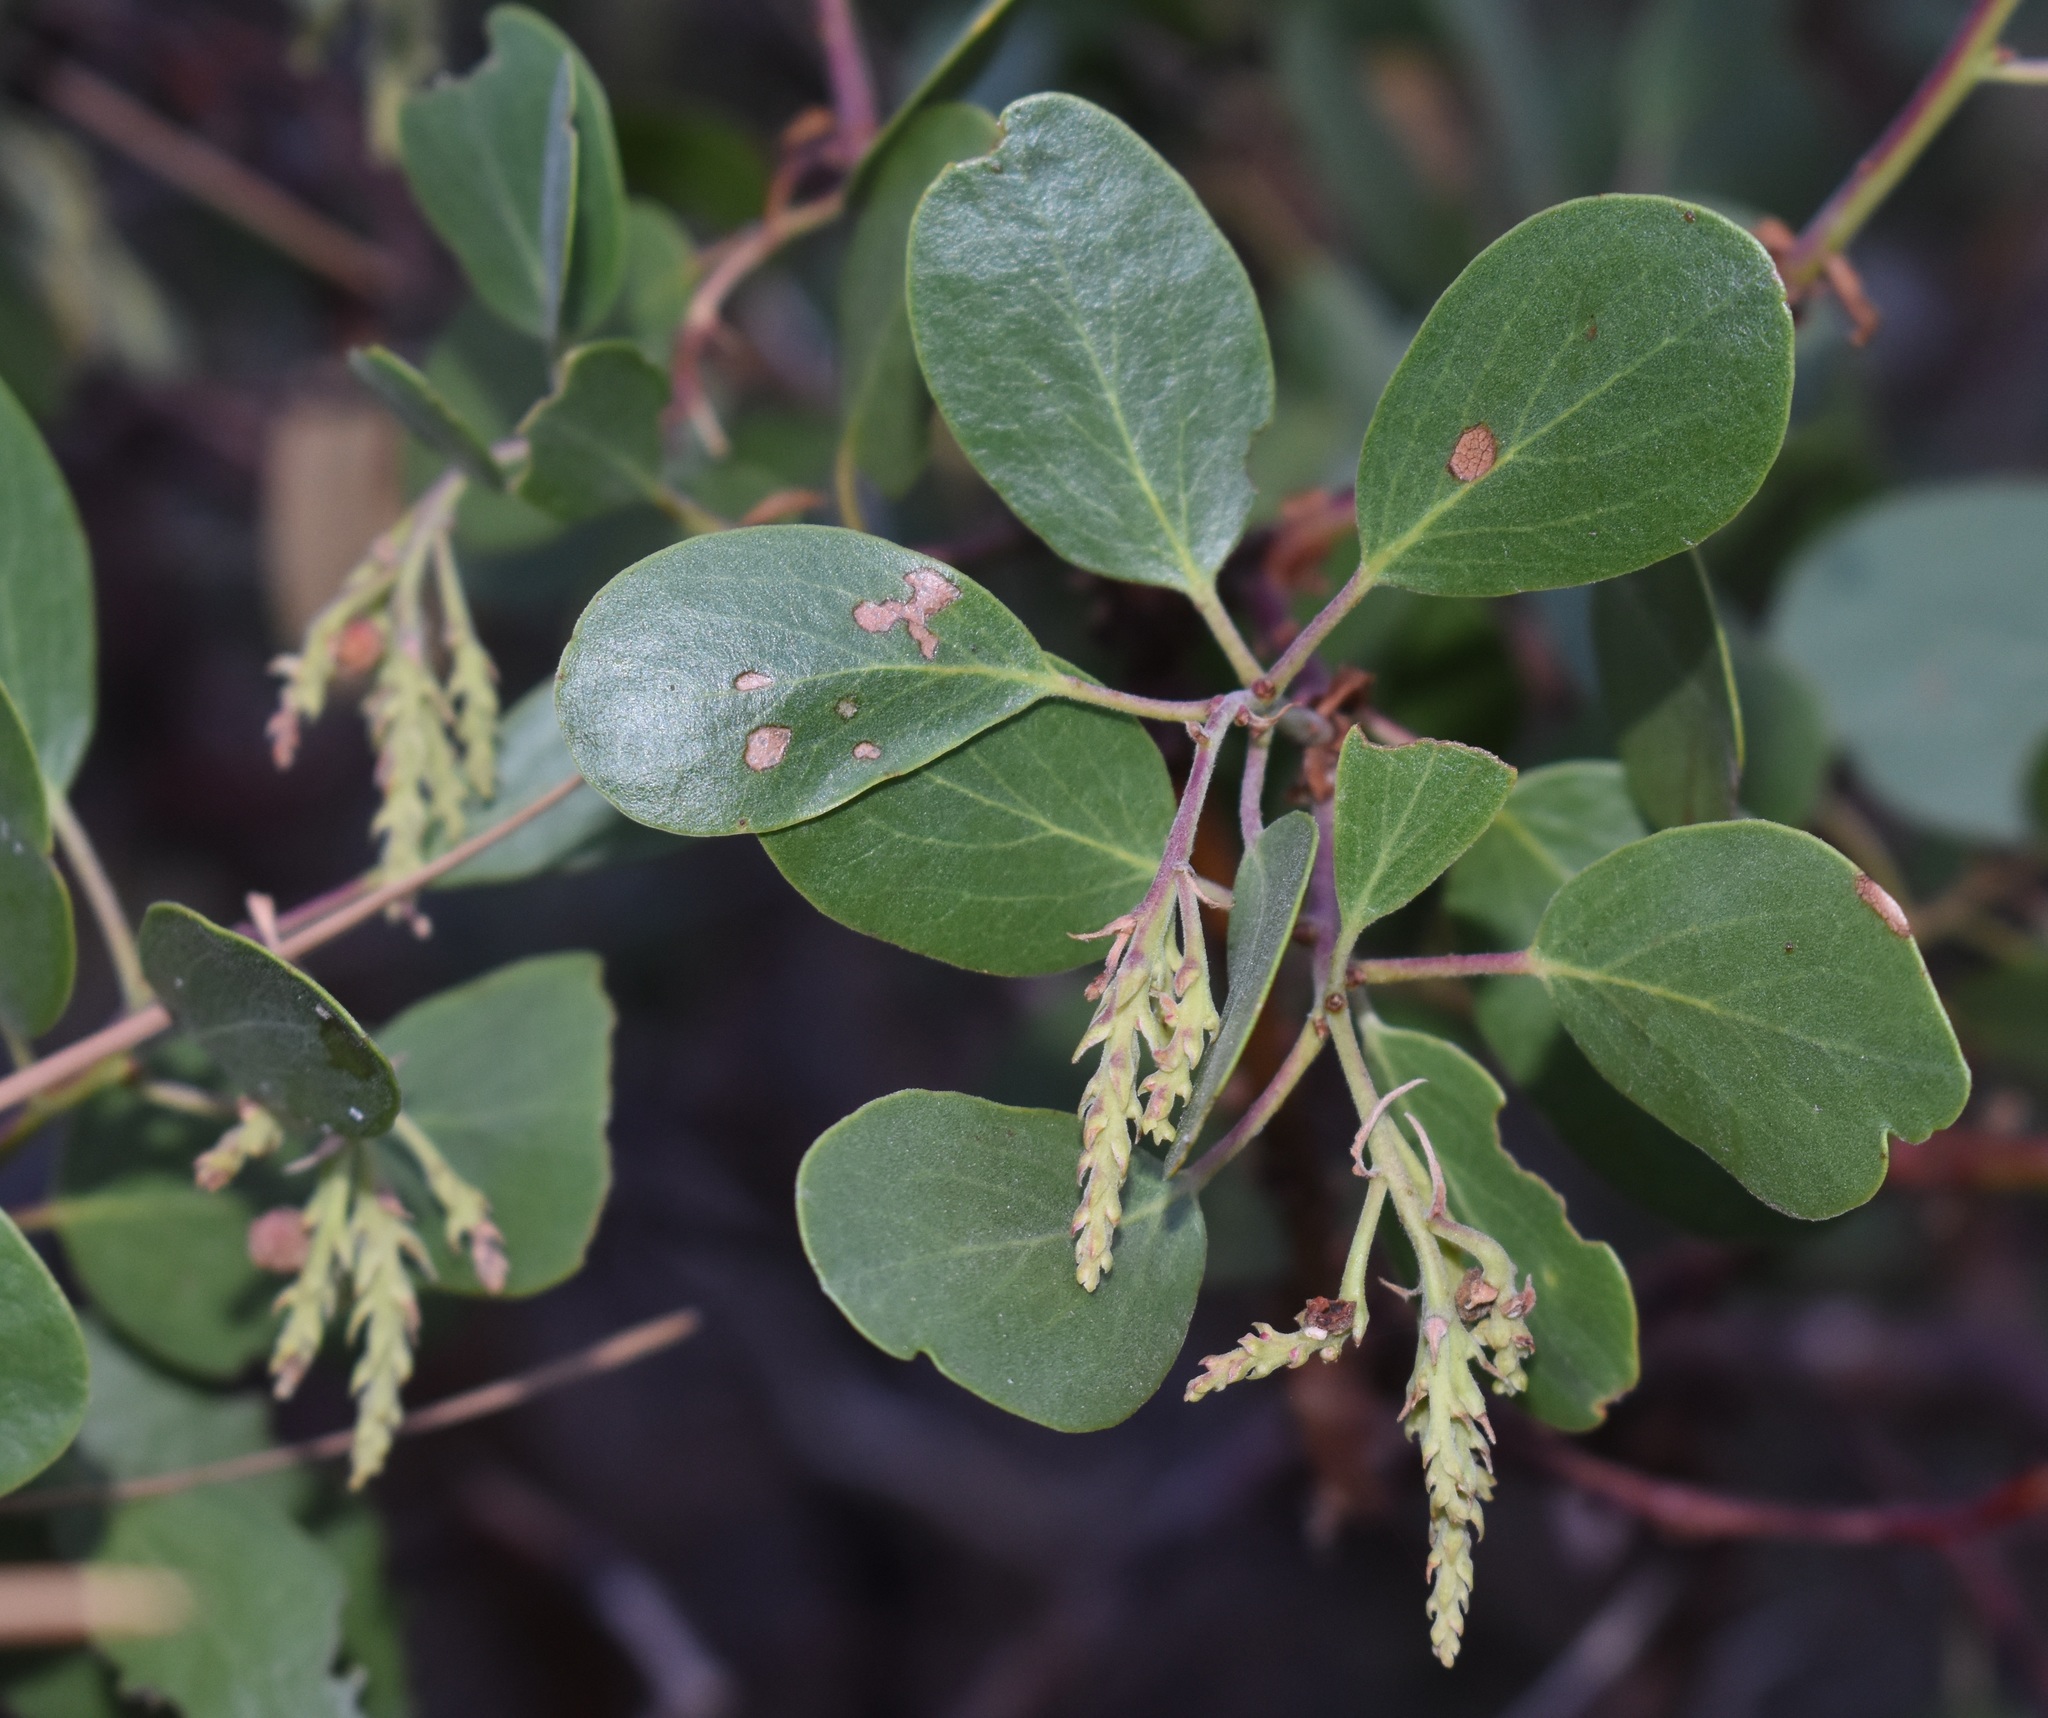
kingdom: Plantae
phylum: Tracheophyta
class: Magnoliopsida
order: Ericales
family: Ericaceae
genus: Arctostaphylos
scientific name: Arctostaphylos patula
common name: Green-leaf manzanita
